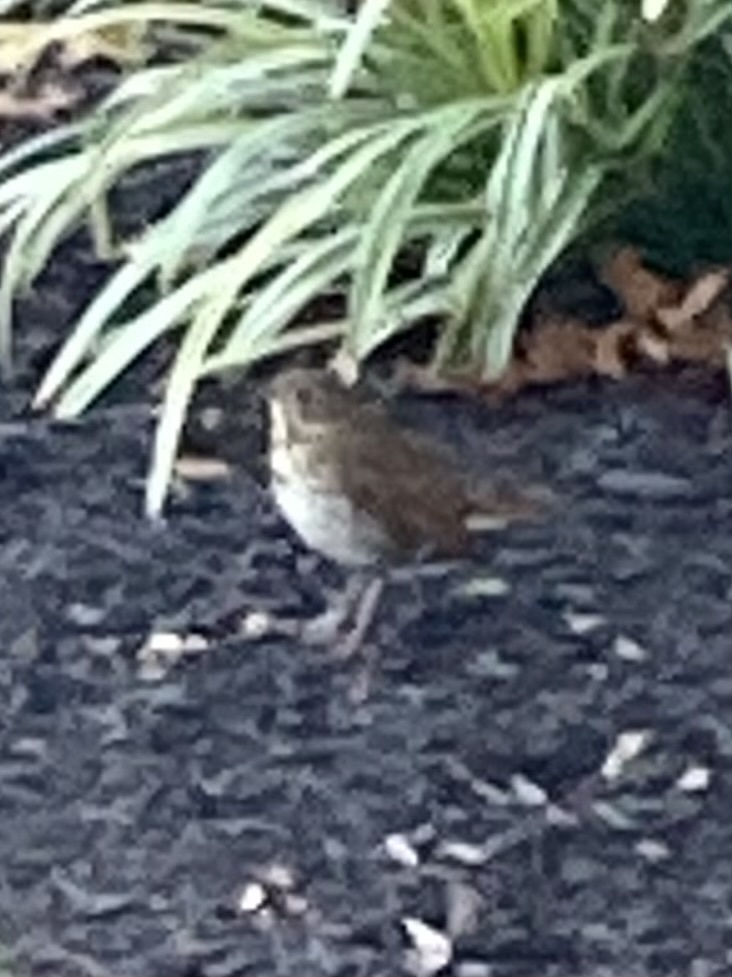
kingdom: Animalia
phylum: Chordata
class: Aves
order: Passeriformes
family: Turdidae
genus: Catharus
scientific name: Catharus guttatus
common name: Hermit thrush
